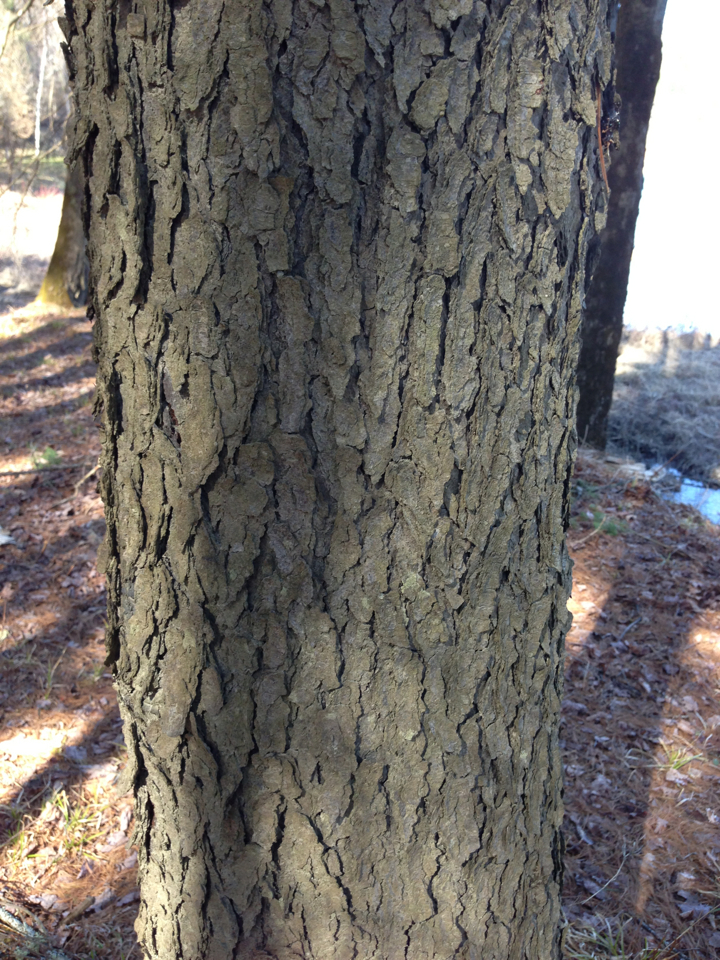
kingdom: Plantae
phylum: Tracheophyta
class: Magnoliopsida
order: Rosales
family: Rosaceae
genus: Prunus
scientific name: Prunus serotina
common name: Black cherry
